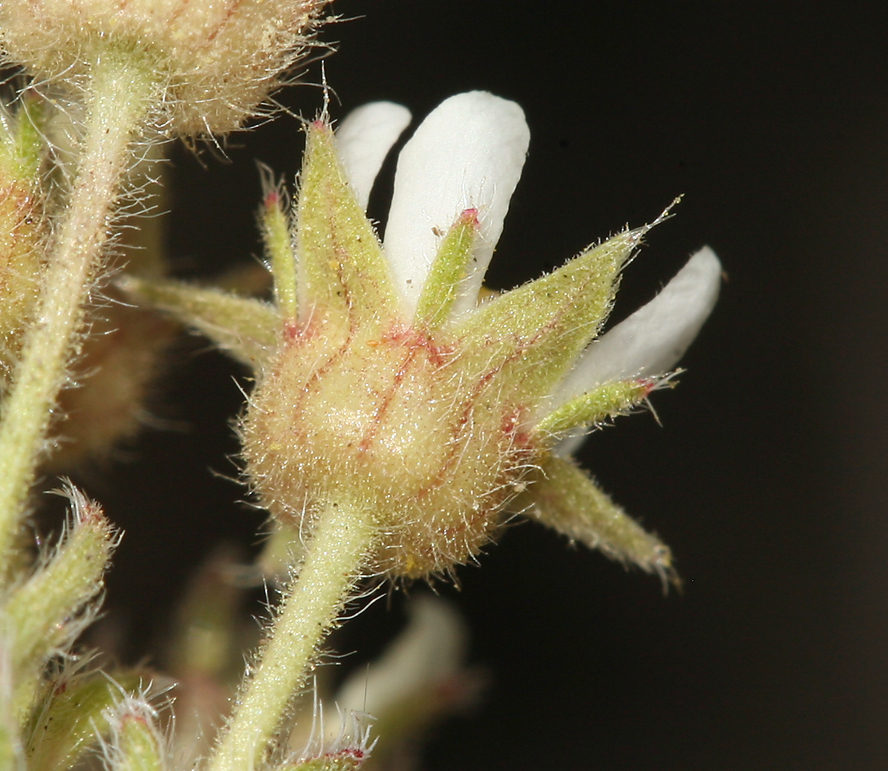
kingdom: Plantae
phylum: Tracheophyta
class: Magnoliopsida
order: Rosales
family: Rosaceae
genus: Potentilla
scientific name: Potentilla hispidula
